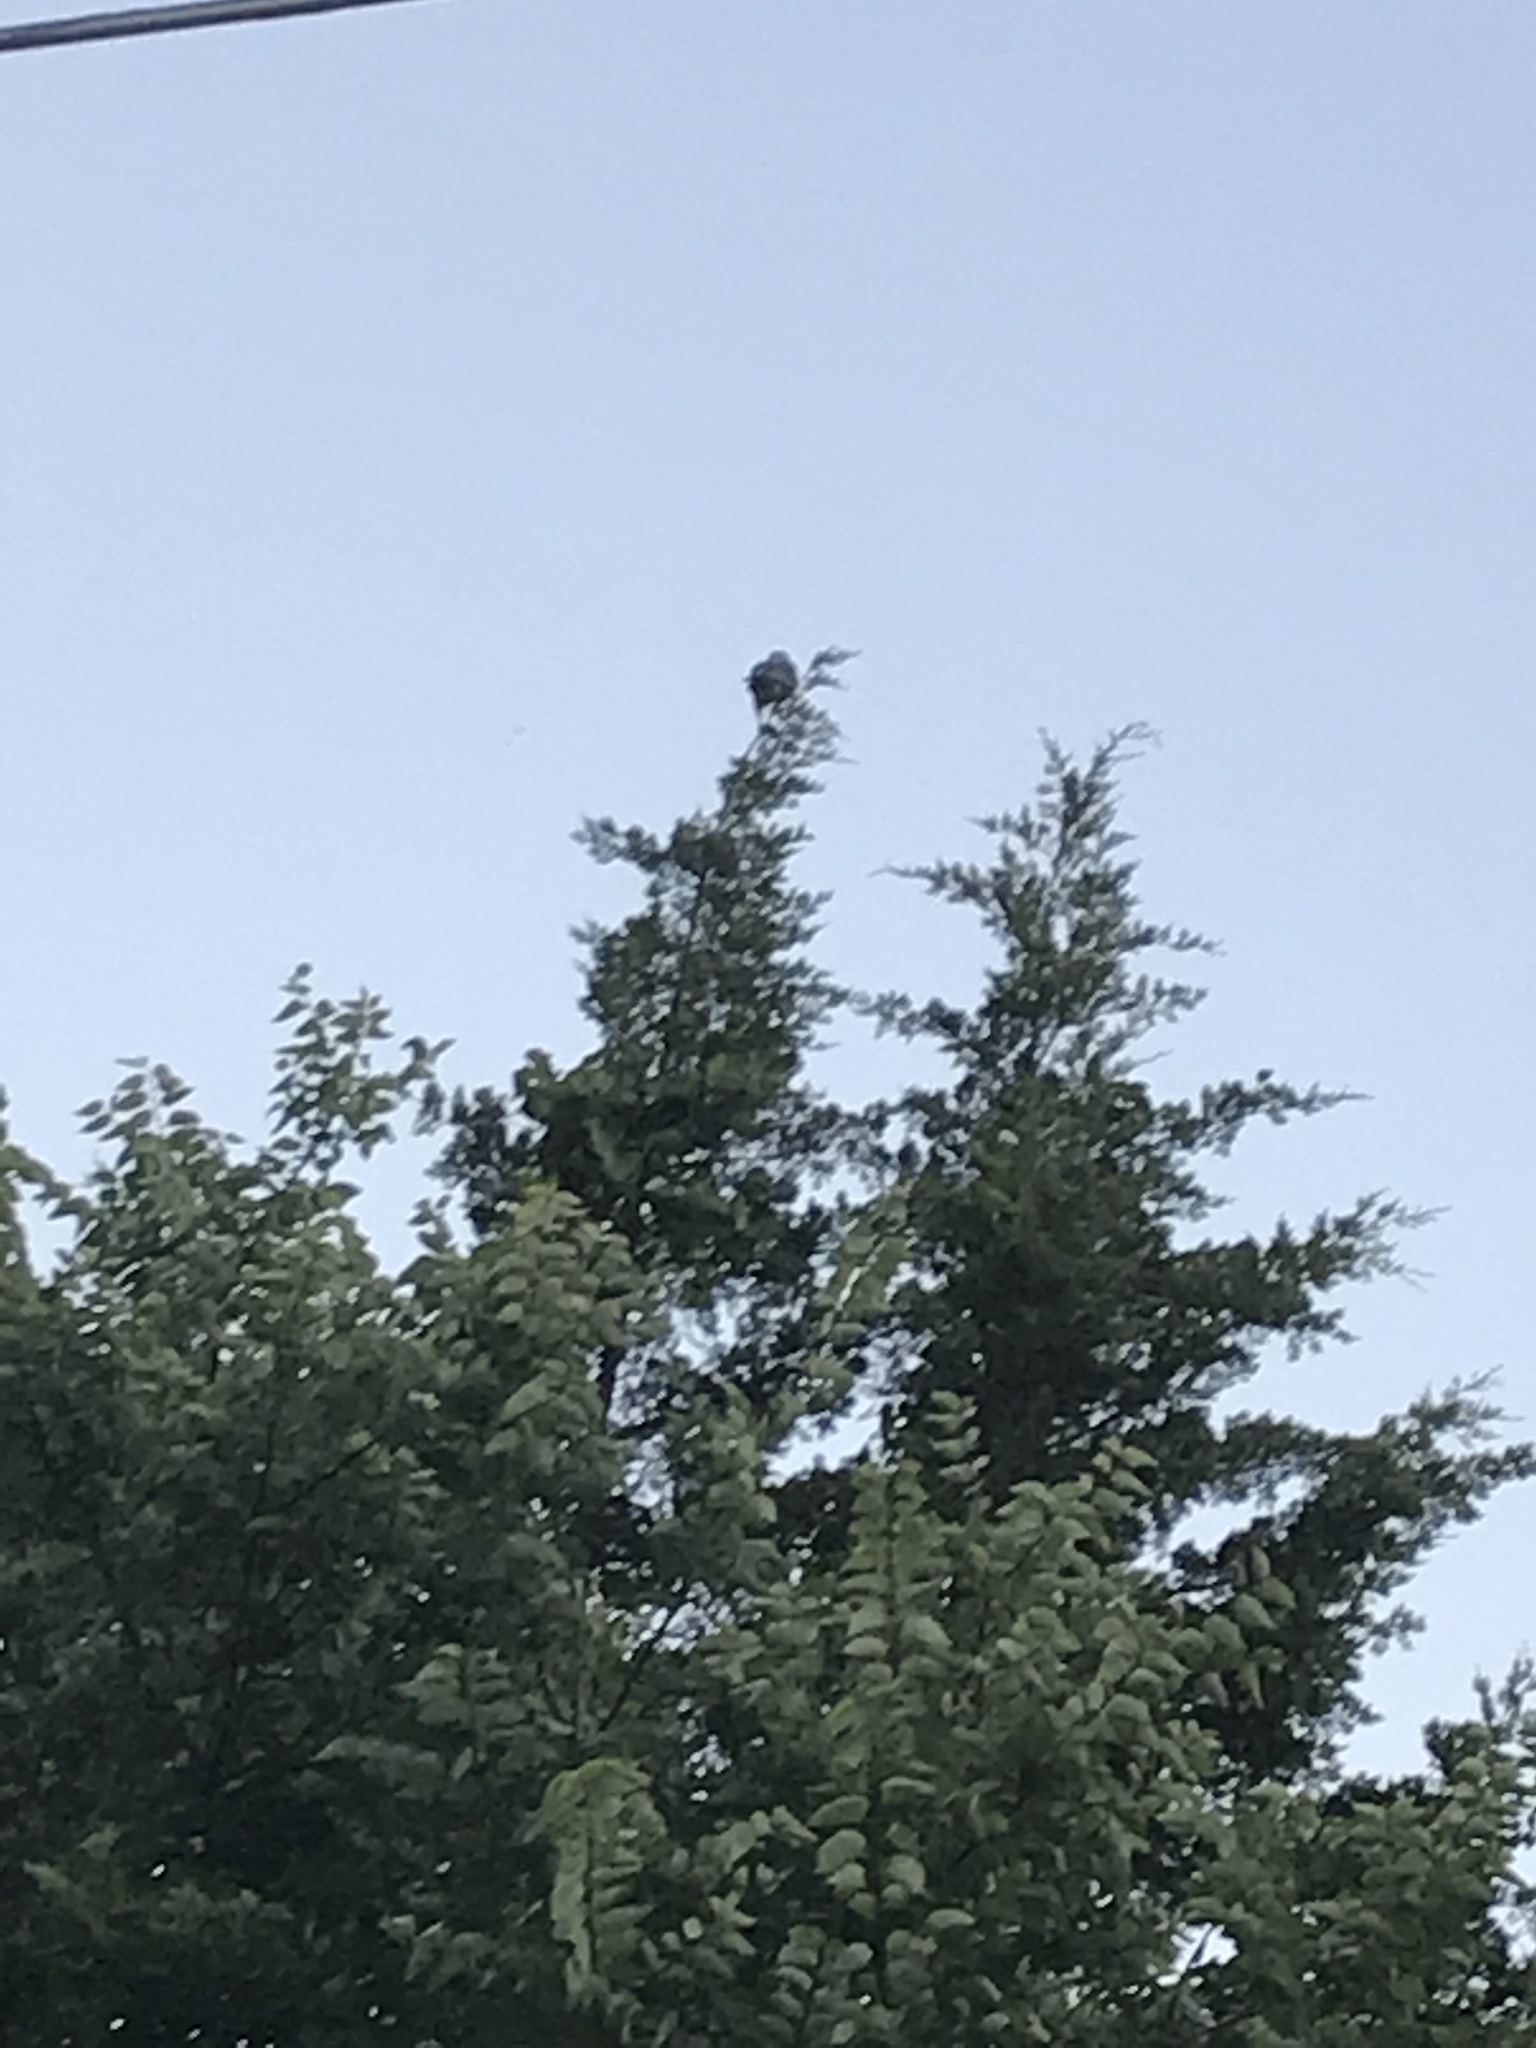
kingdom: Animalia
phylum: Chordata
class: Aves
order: Accipitriformes
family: Accipitridae
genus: Ictinia
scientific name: Ictinia mississippiensis
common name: Mississippi kite
